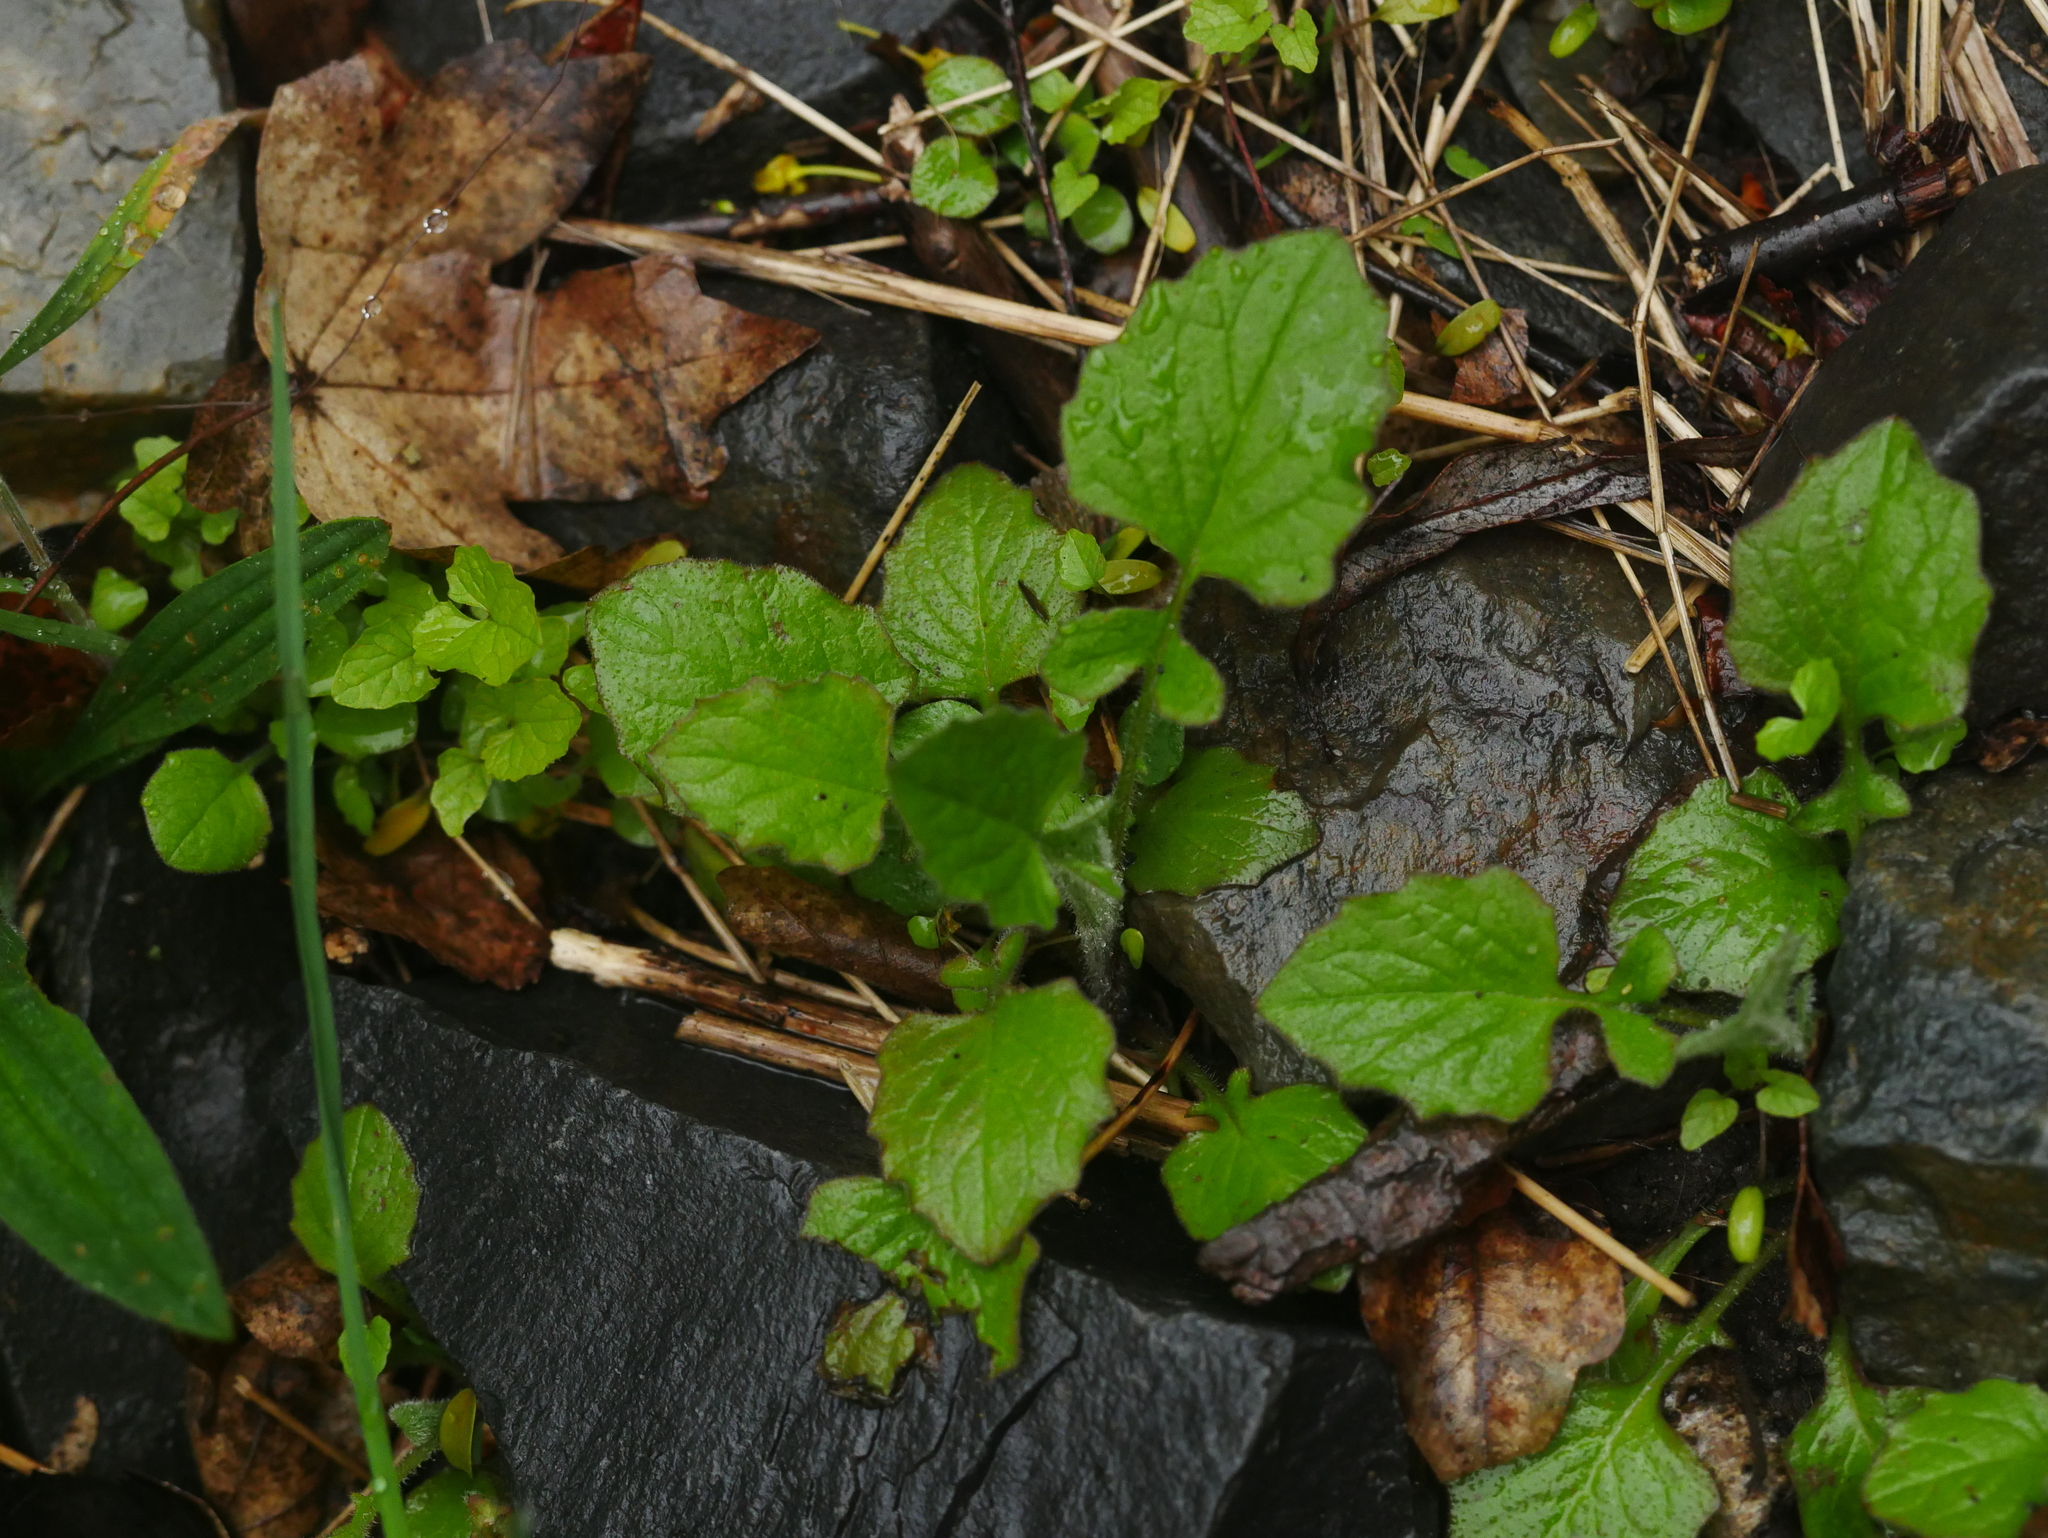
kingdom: Plantae
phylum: Tracheophyta
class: Magnoliopsida
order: Asterales
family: Asteraceae
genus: Lapsana
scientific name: Lapsana communis
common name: Nipplewort
